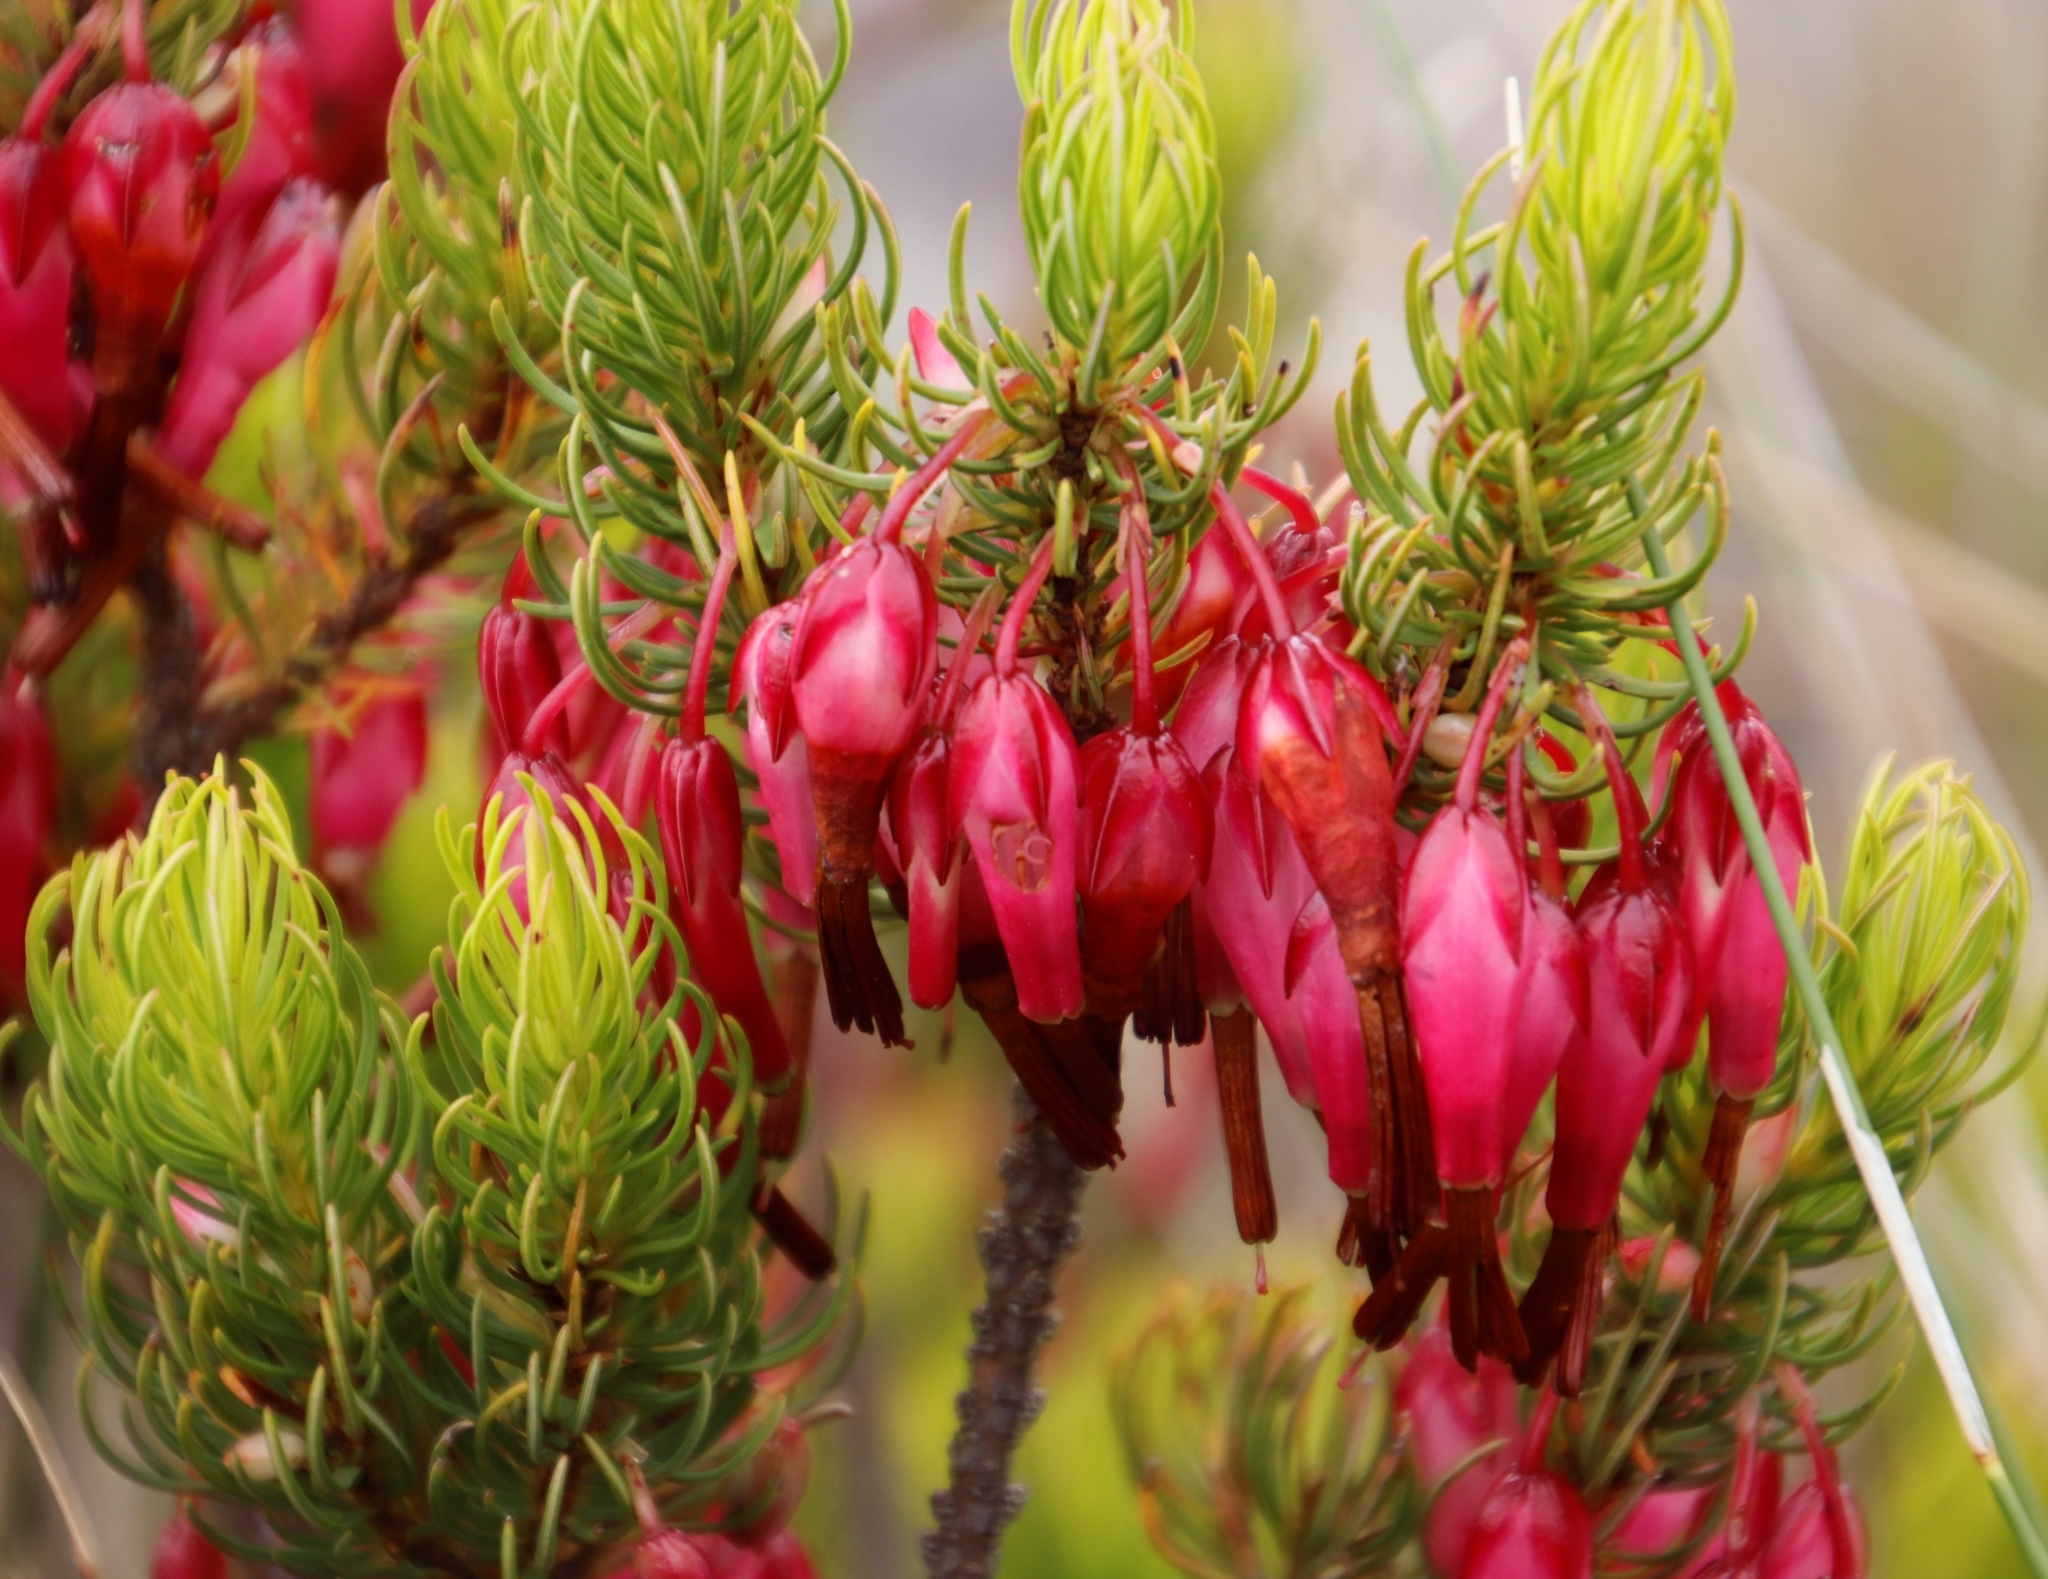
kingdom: Plantae
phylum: Tracheophyta
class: Magnoliopsida
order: Ericales
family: Ericaceae
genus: Erica
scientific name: Erica plukenetii
